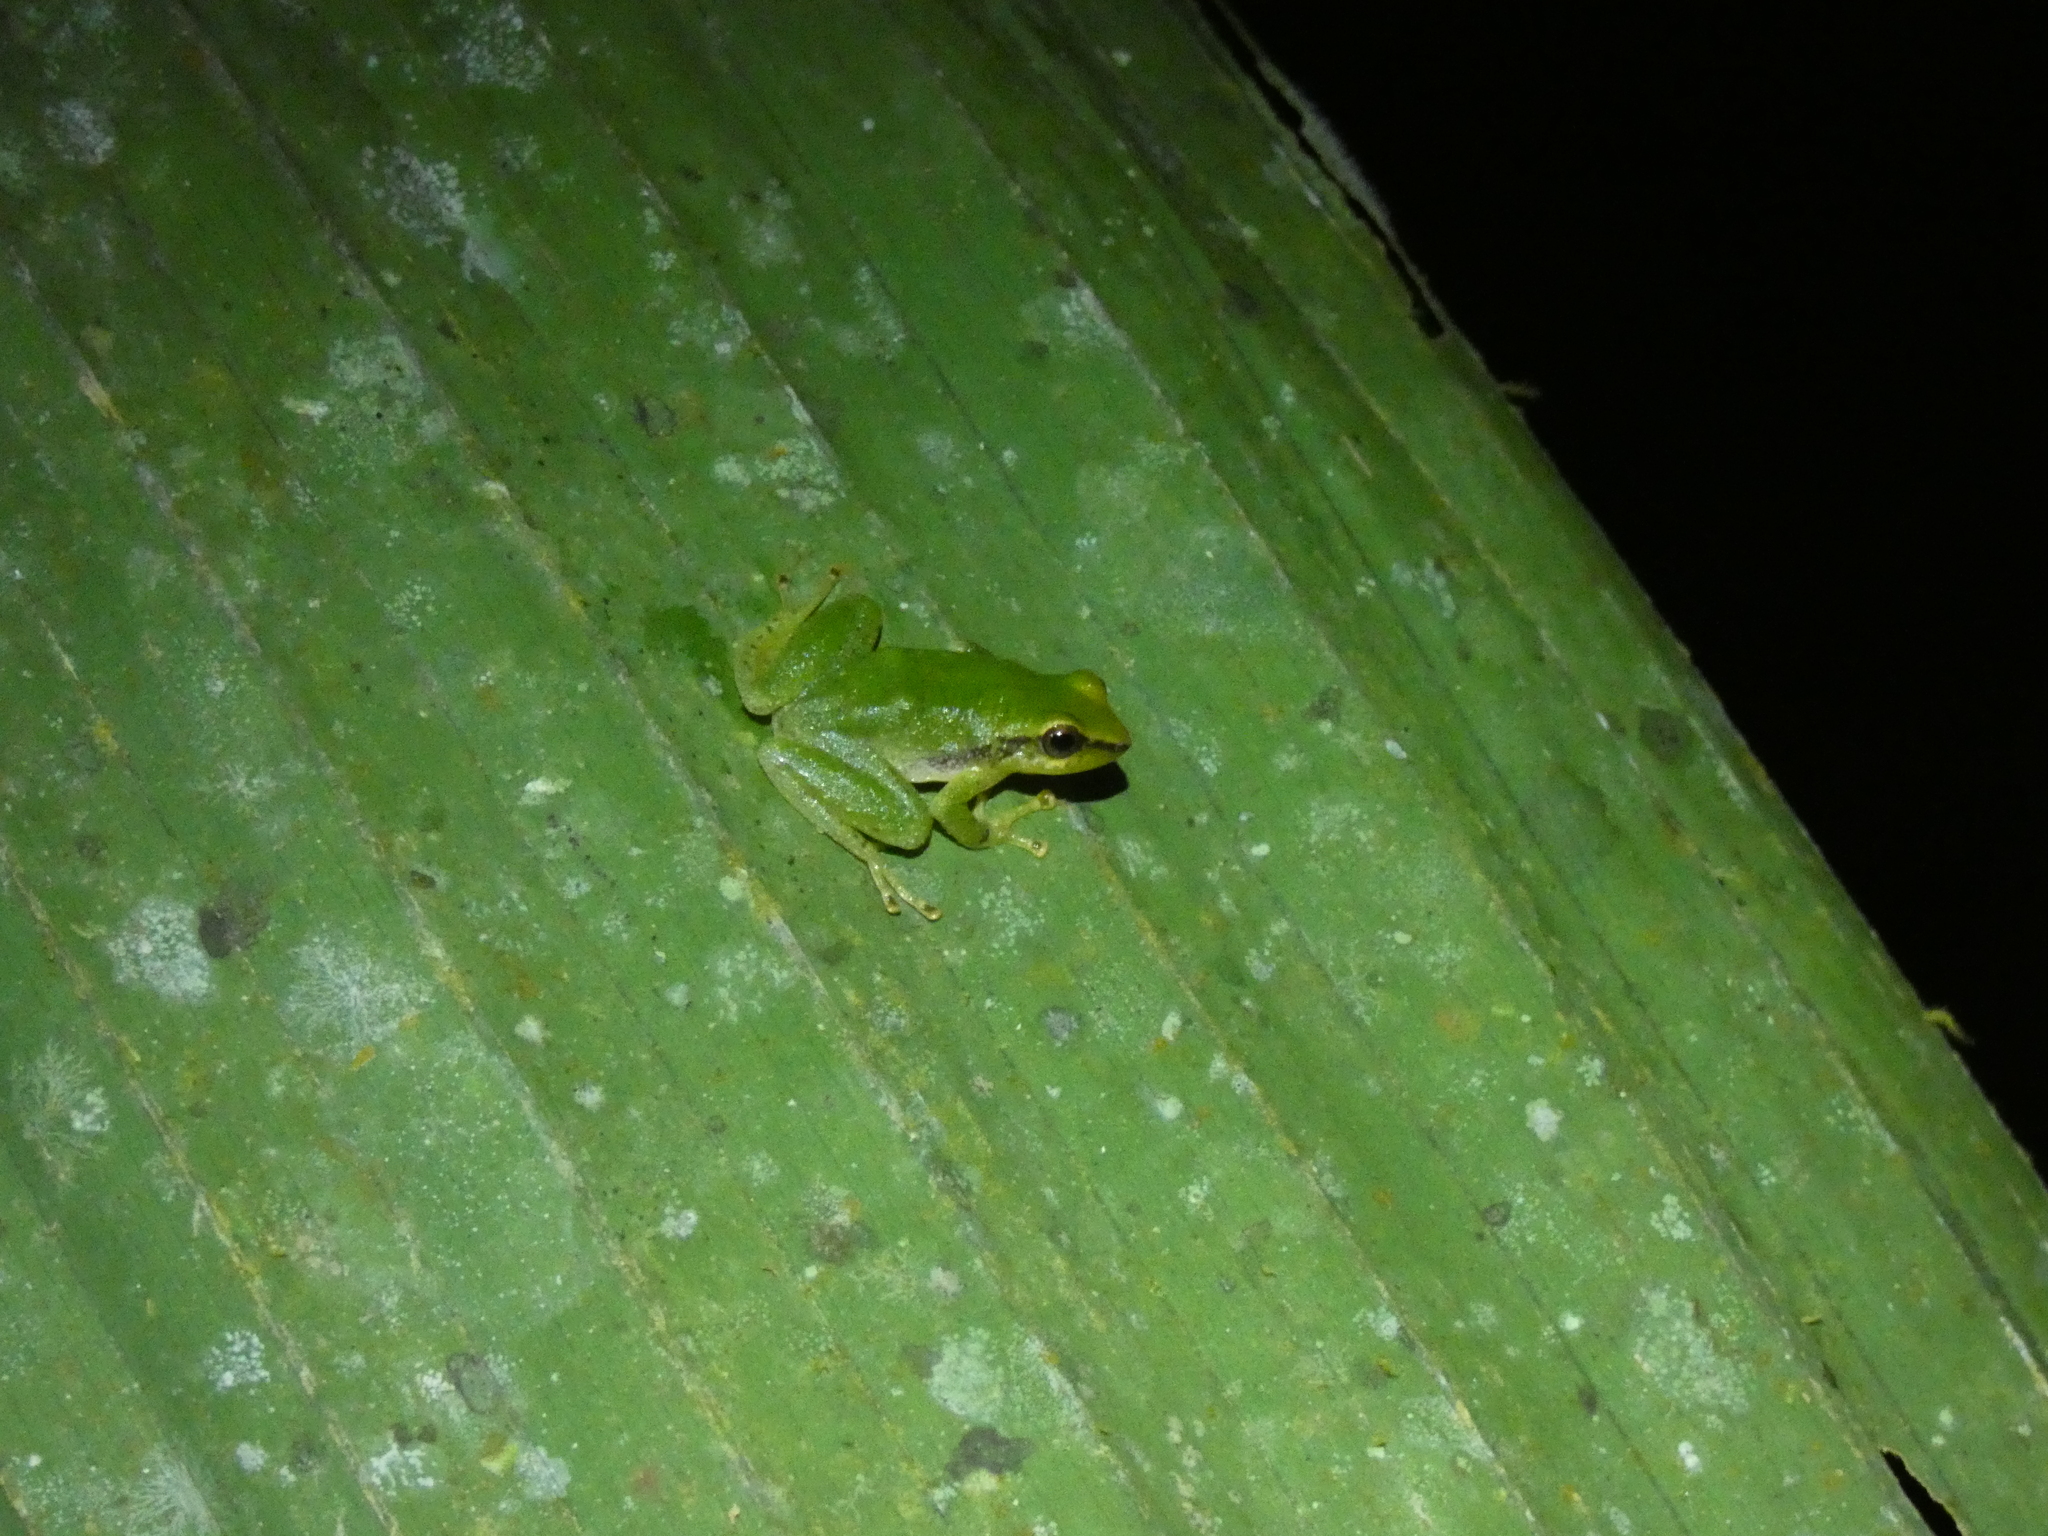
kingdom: Animalia
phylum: Chordata
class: Amphibia
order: Anura
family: Craugastoridae
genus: Pristimantis
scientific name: Pristimantis omeviridis
